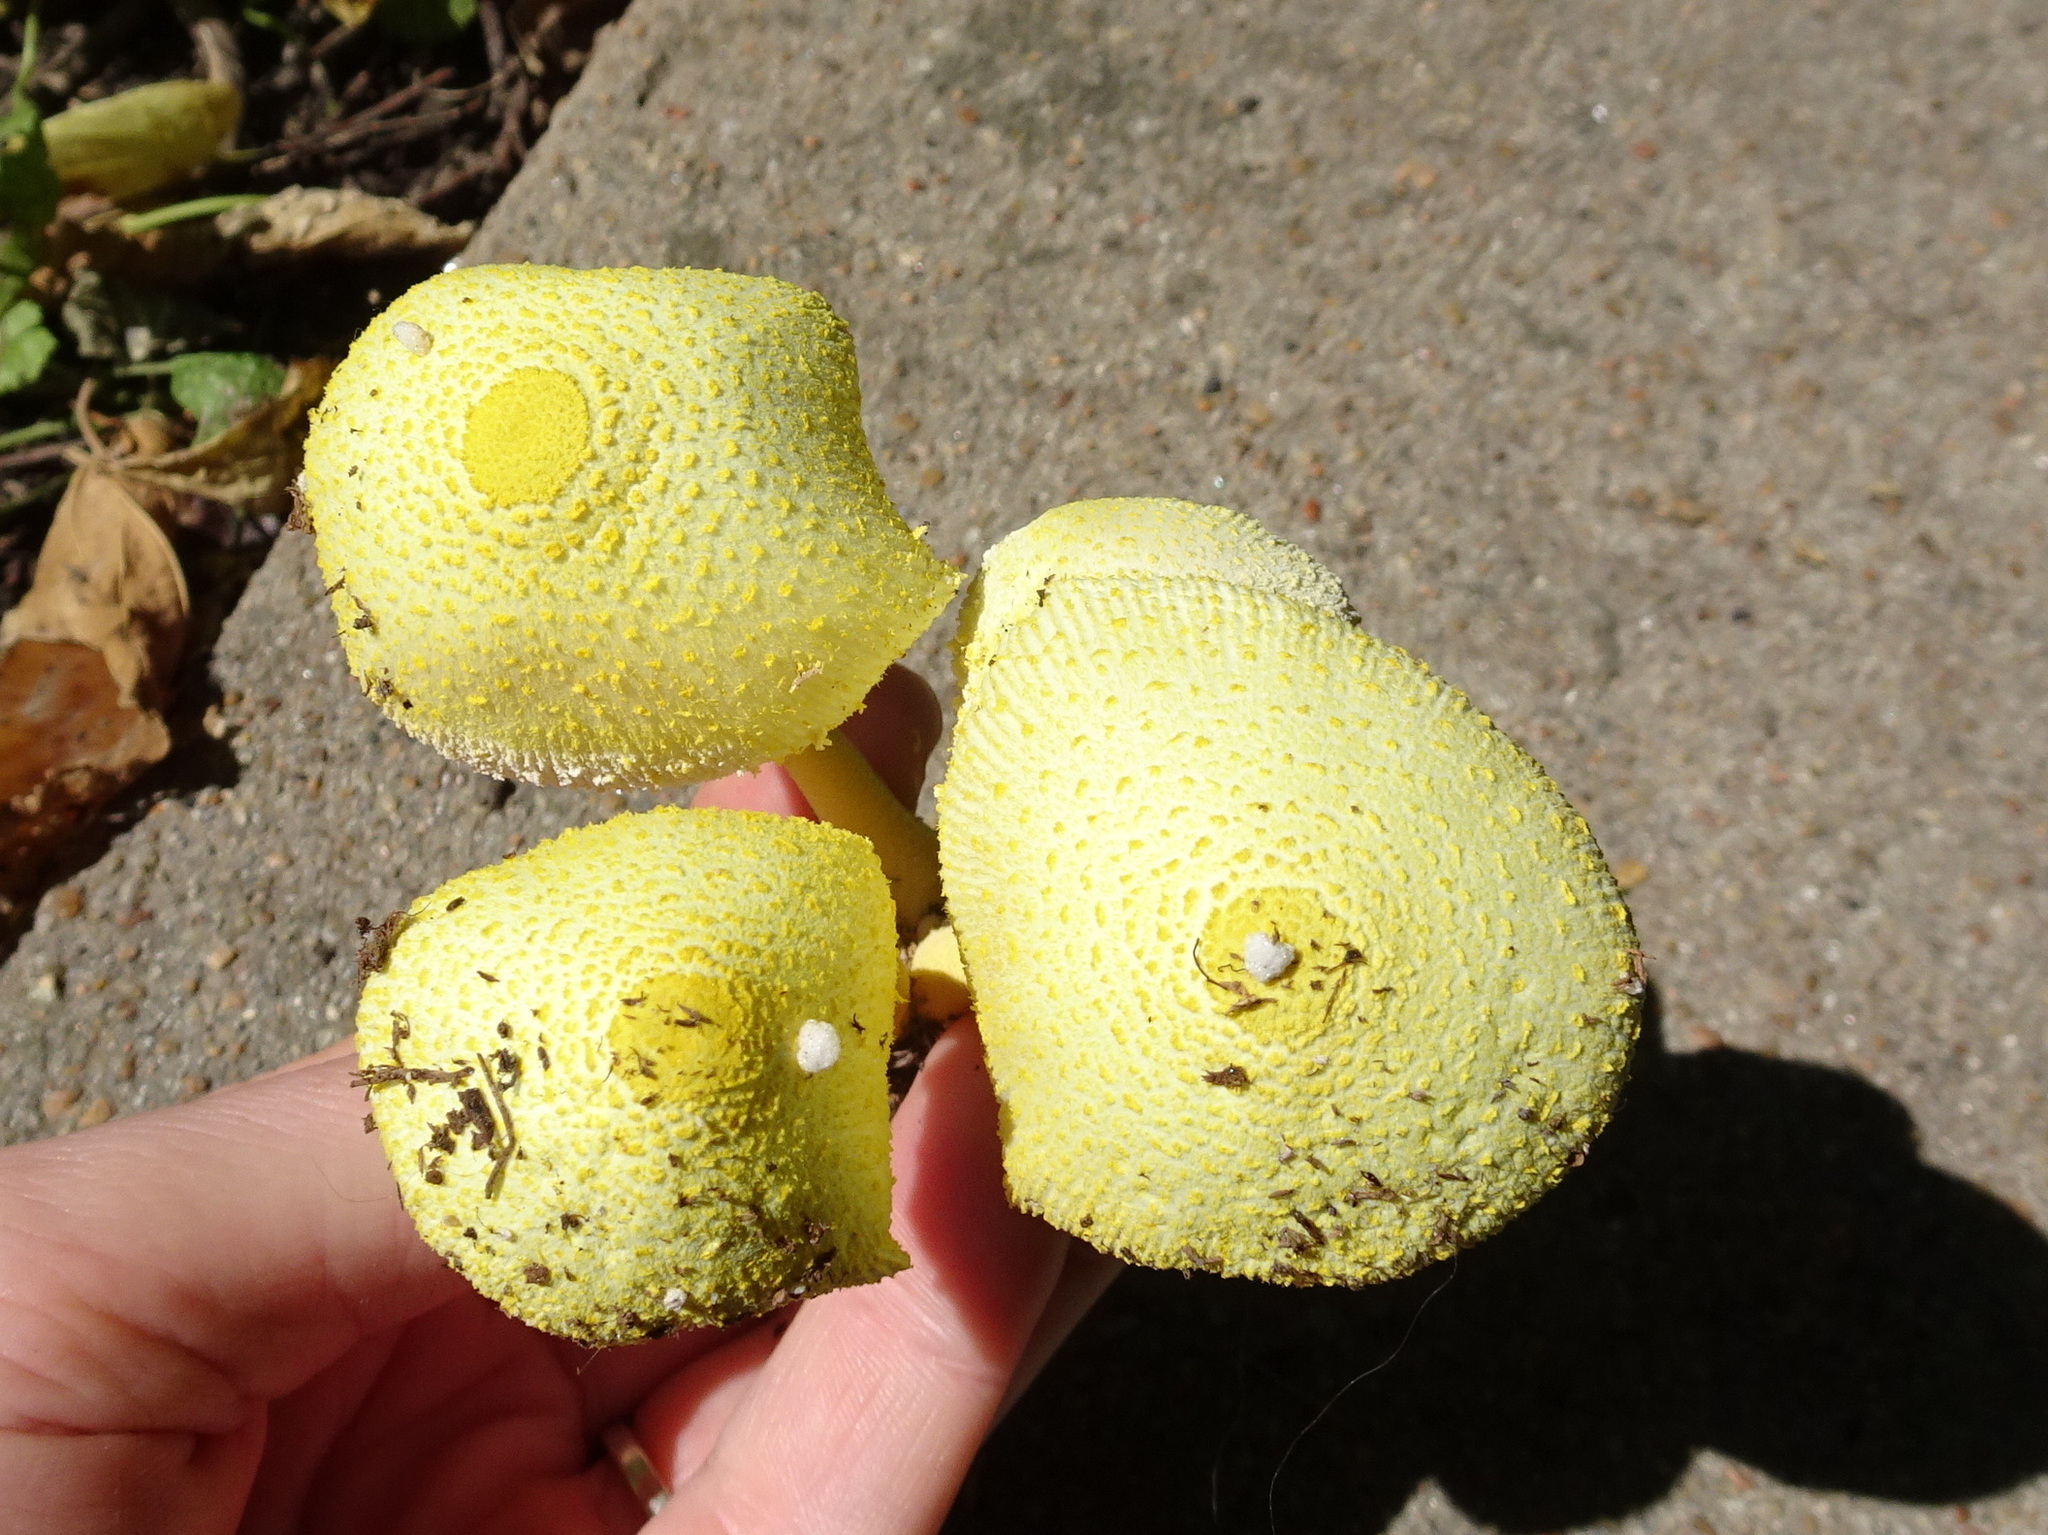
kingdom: Fungi
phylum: Basidiomycota
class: Agaricomycetes
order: Agaricales
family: Agaricaceae
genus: Leucocoprinus
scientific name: Leucocoprinus birnbaumii
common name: Plantpot dapperling
